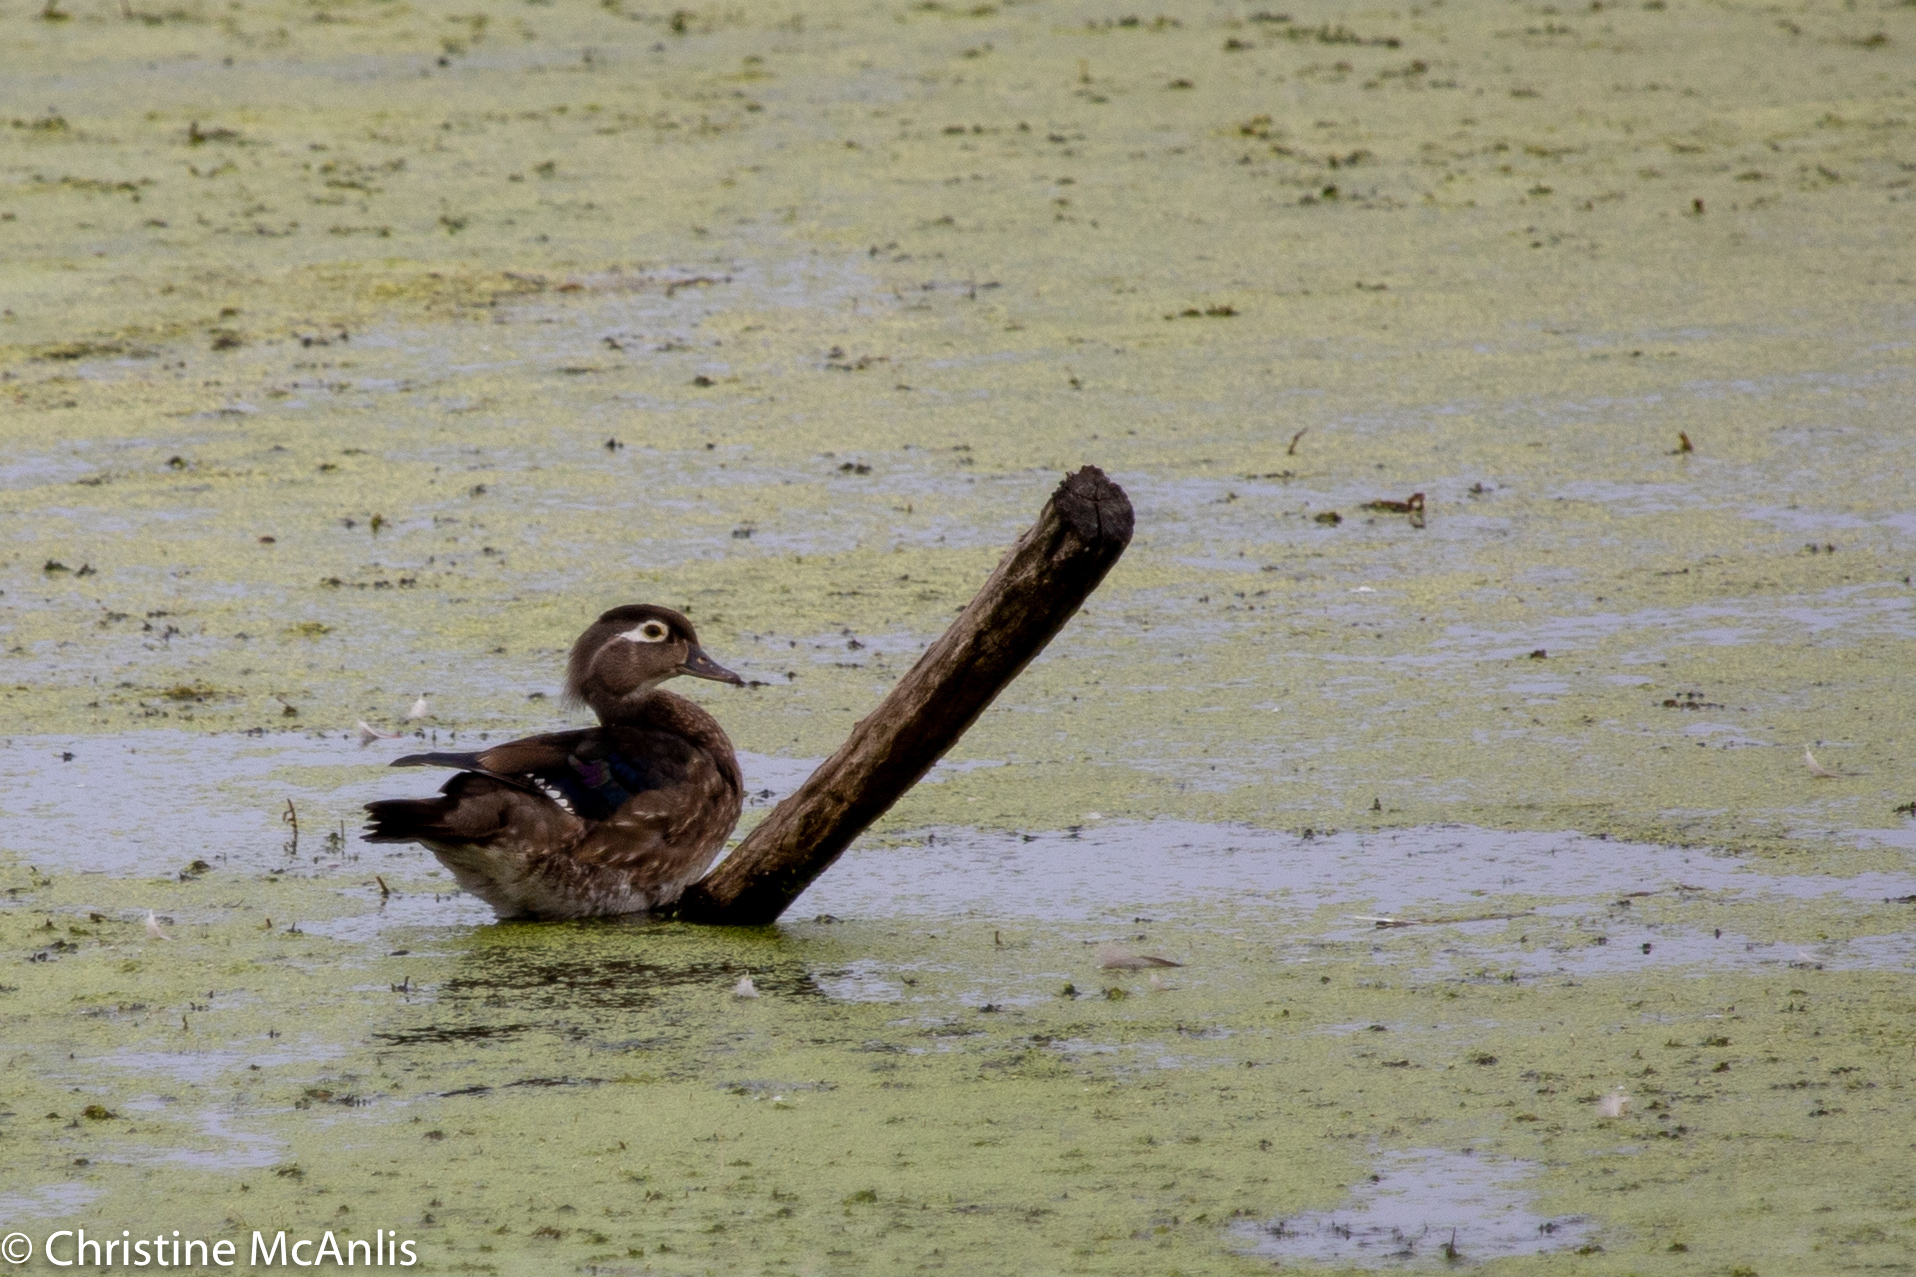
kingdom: Animalia
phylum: Chordata
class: Aves
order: Anseriformes
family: Anatidae
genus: Aix
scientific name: Aix sponsa
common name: Wood duck
